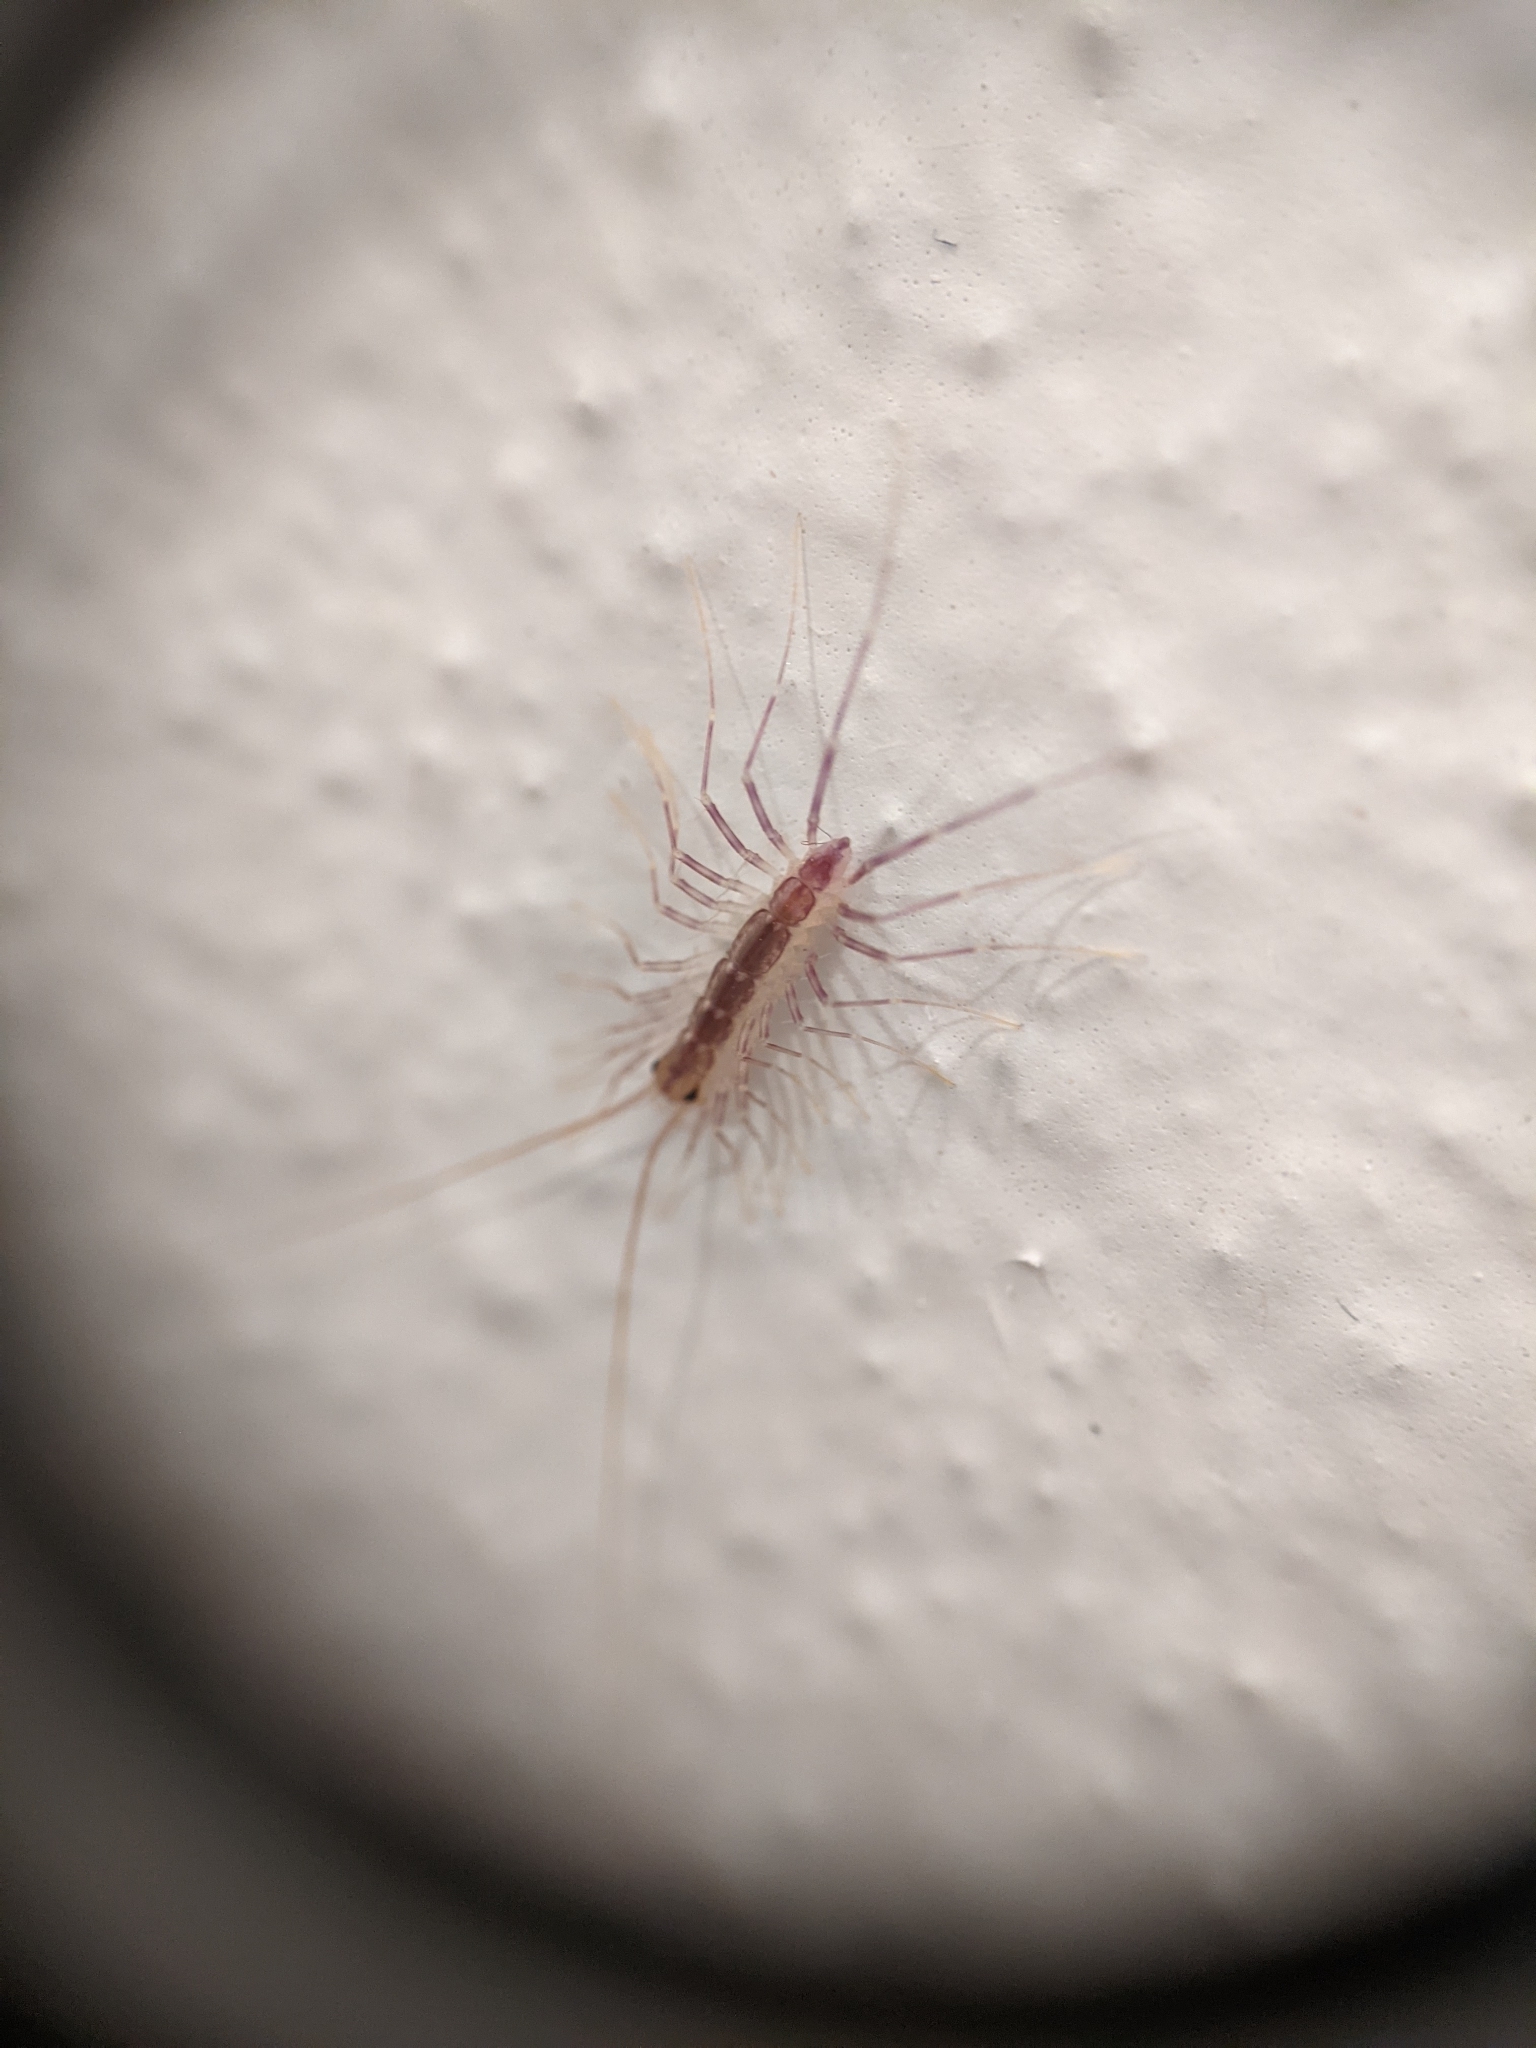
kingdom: Animalia
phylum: Arthropoda
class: Chilopoda
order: Scutigeromorpha
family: Scutigeridae
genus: Scutigera
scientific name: Scutigera coleoptrata
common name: House centipede
